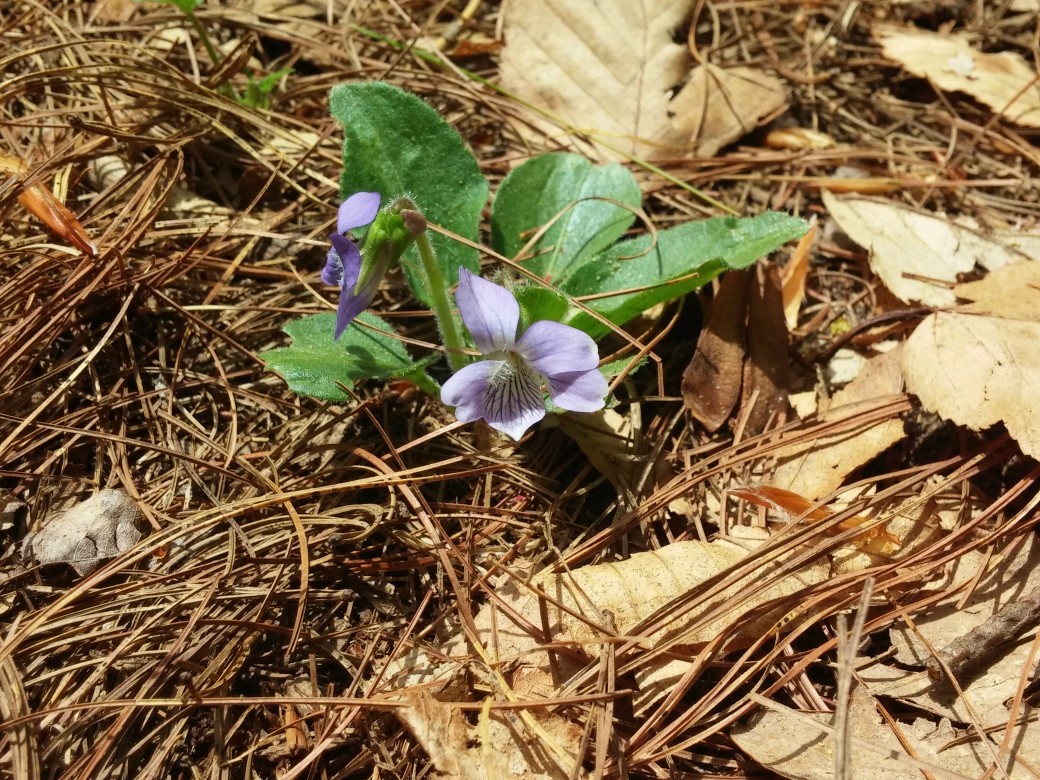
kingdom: Plantae
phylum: Tracheophyta
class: Magnoliopsida
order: Malpighiales
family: Violaceae
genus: Viola
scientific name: Viola fimbriatula
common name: Sand violet
